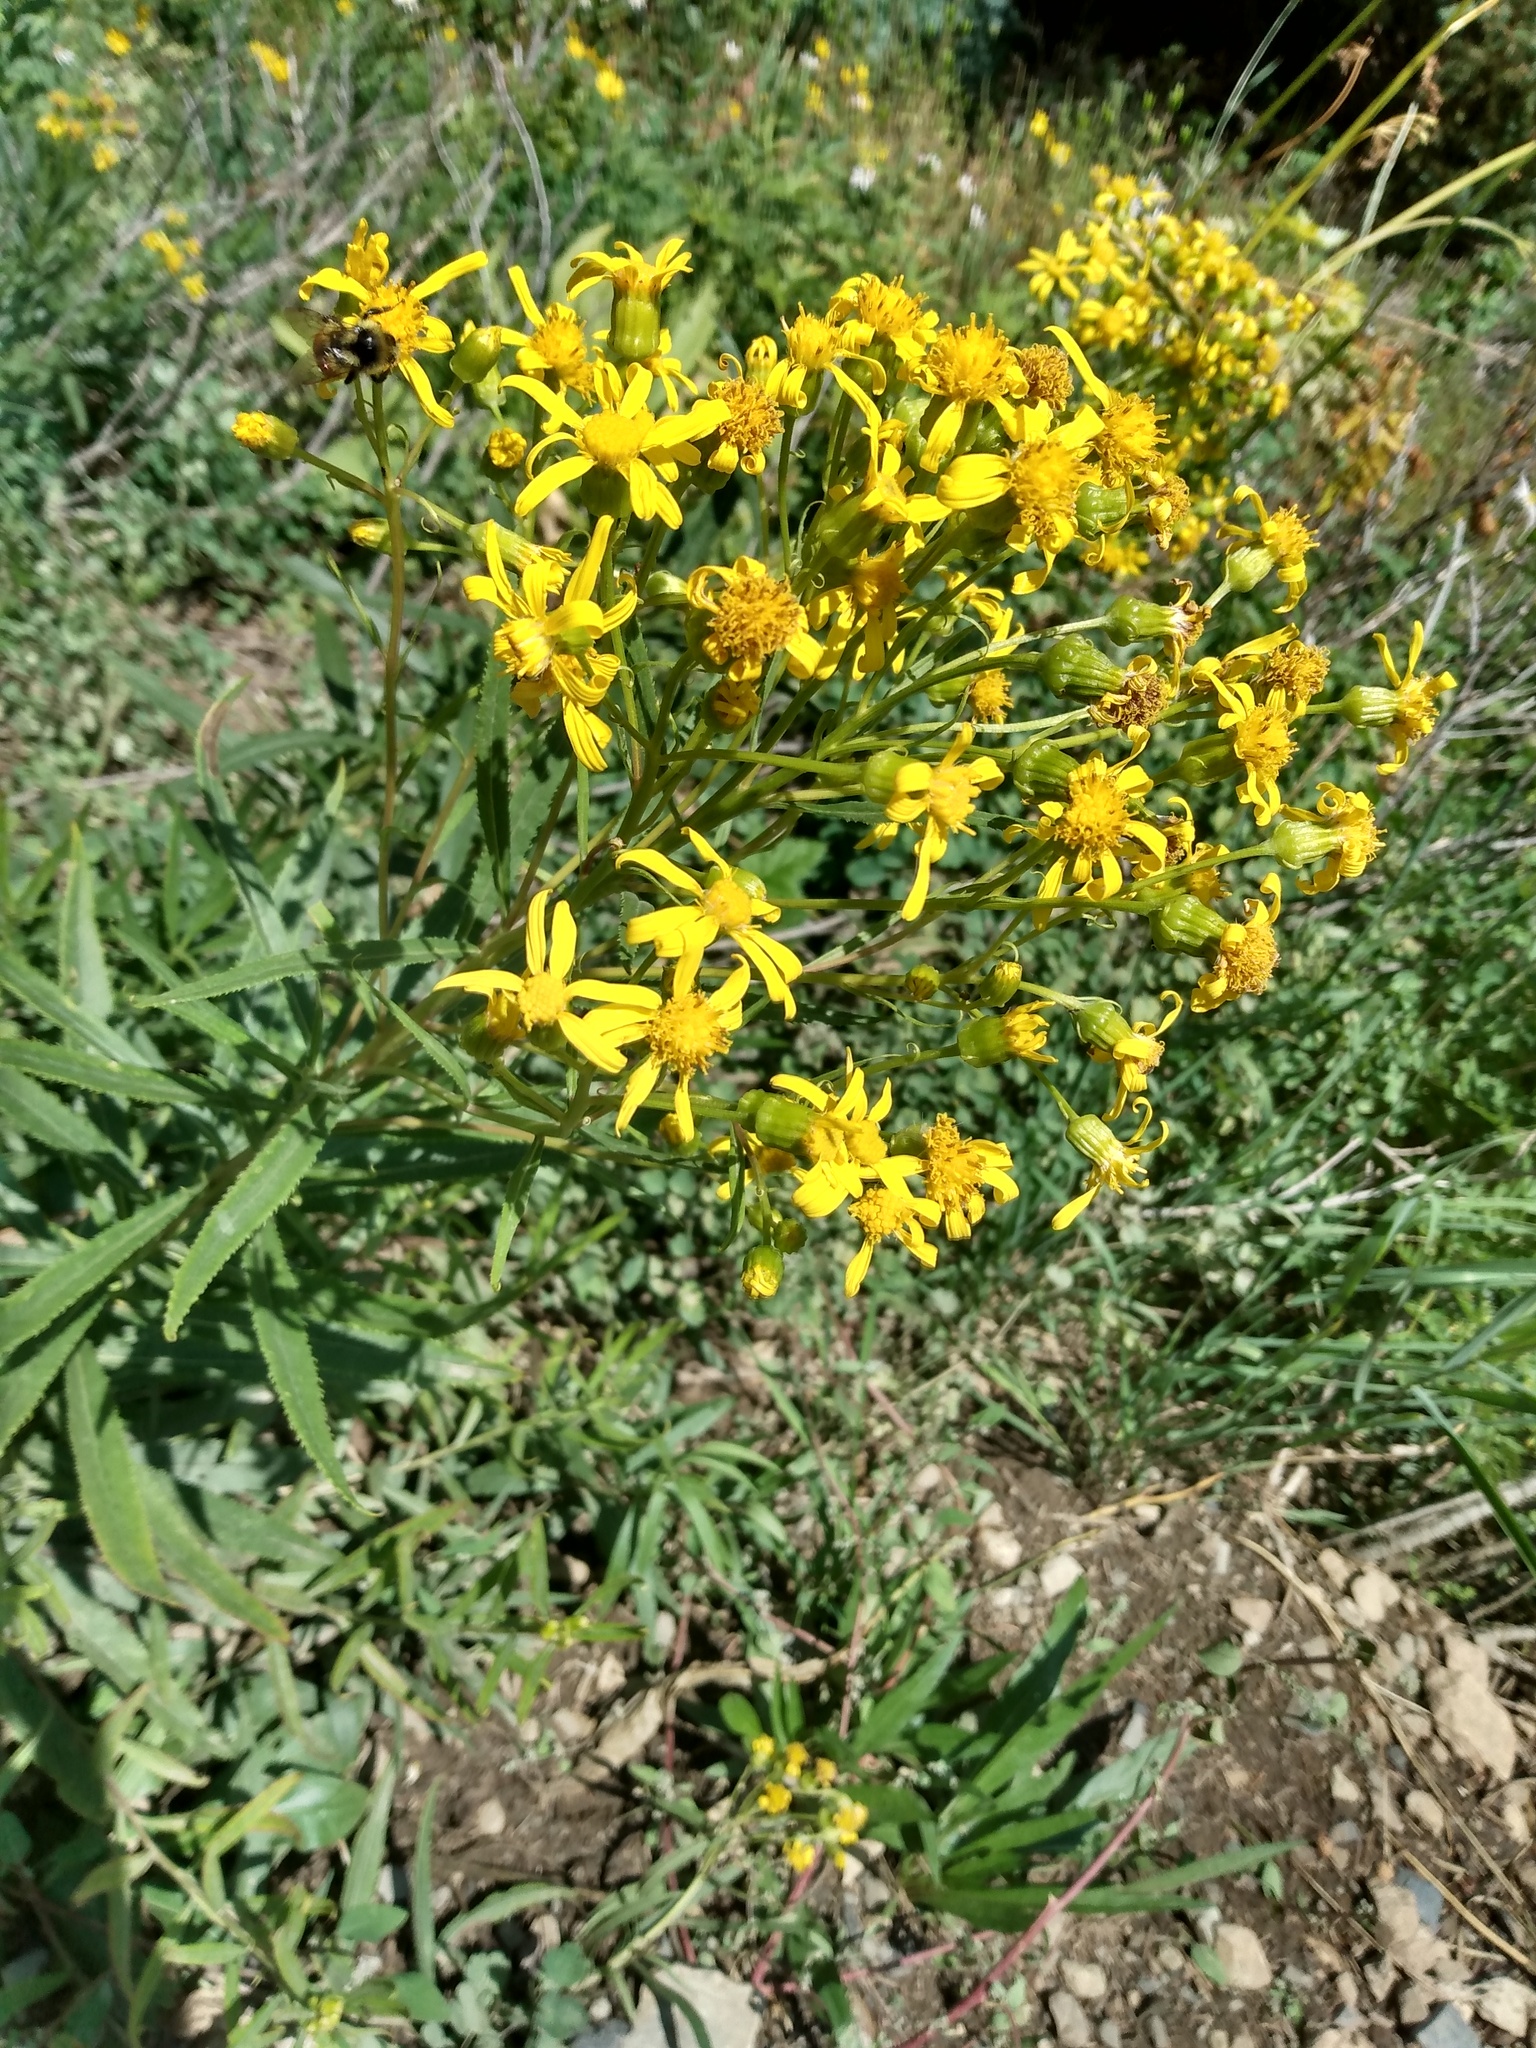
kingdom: Plantae
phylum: Tracheophyta
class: Magnoliopsida
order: Asterales
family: Asteraceae
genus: Senecio
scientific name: Senecio serra
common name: Tall ragwort
